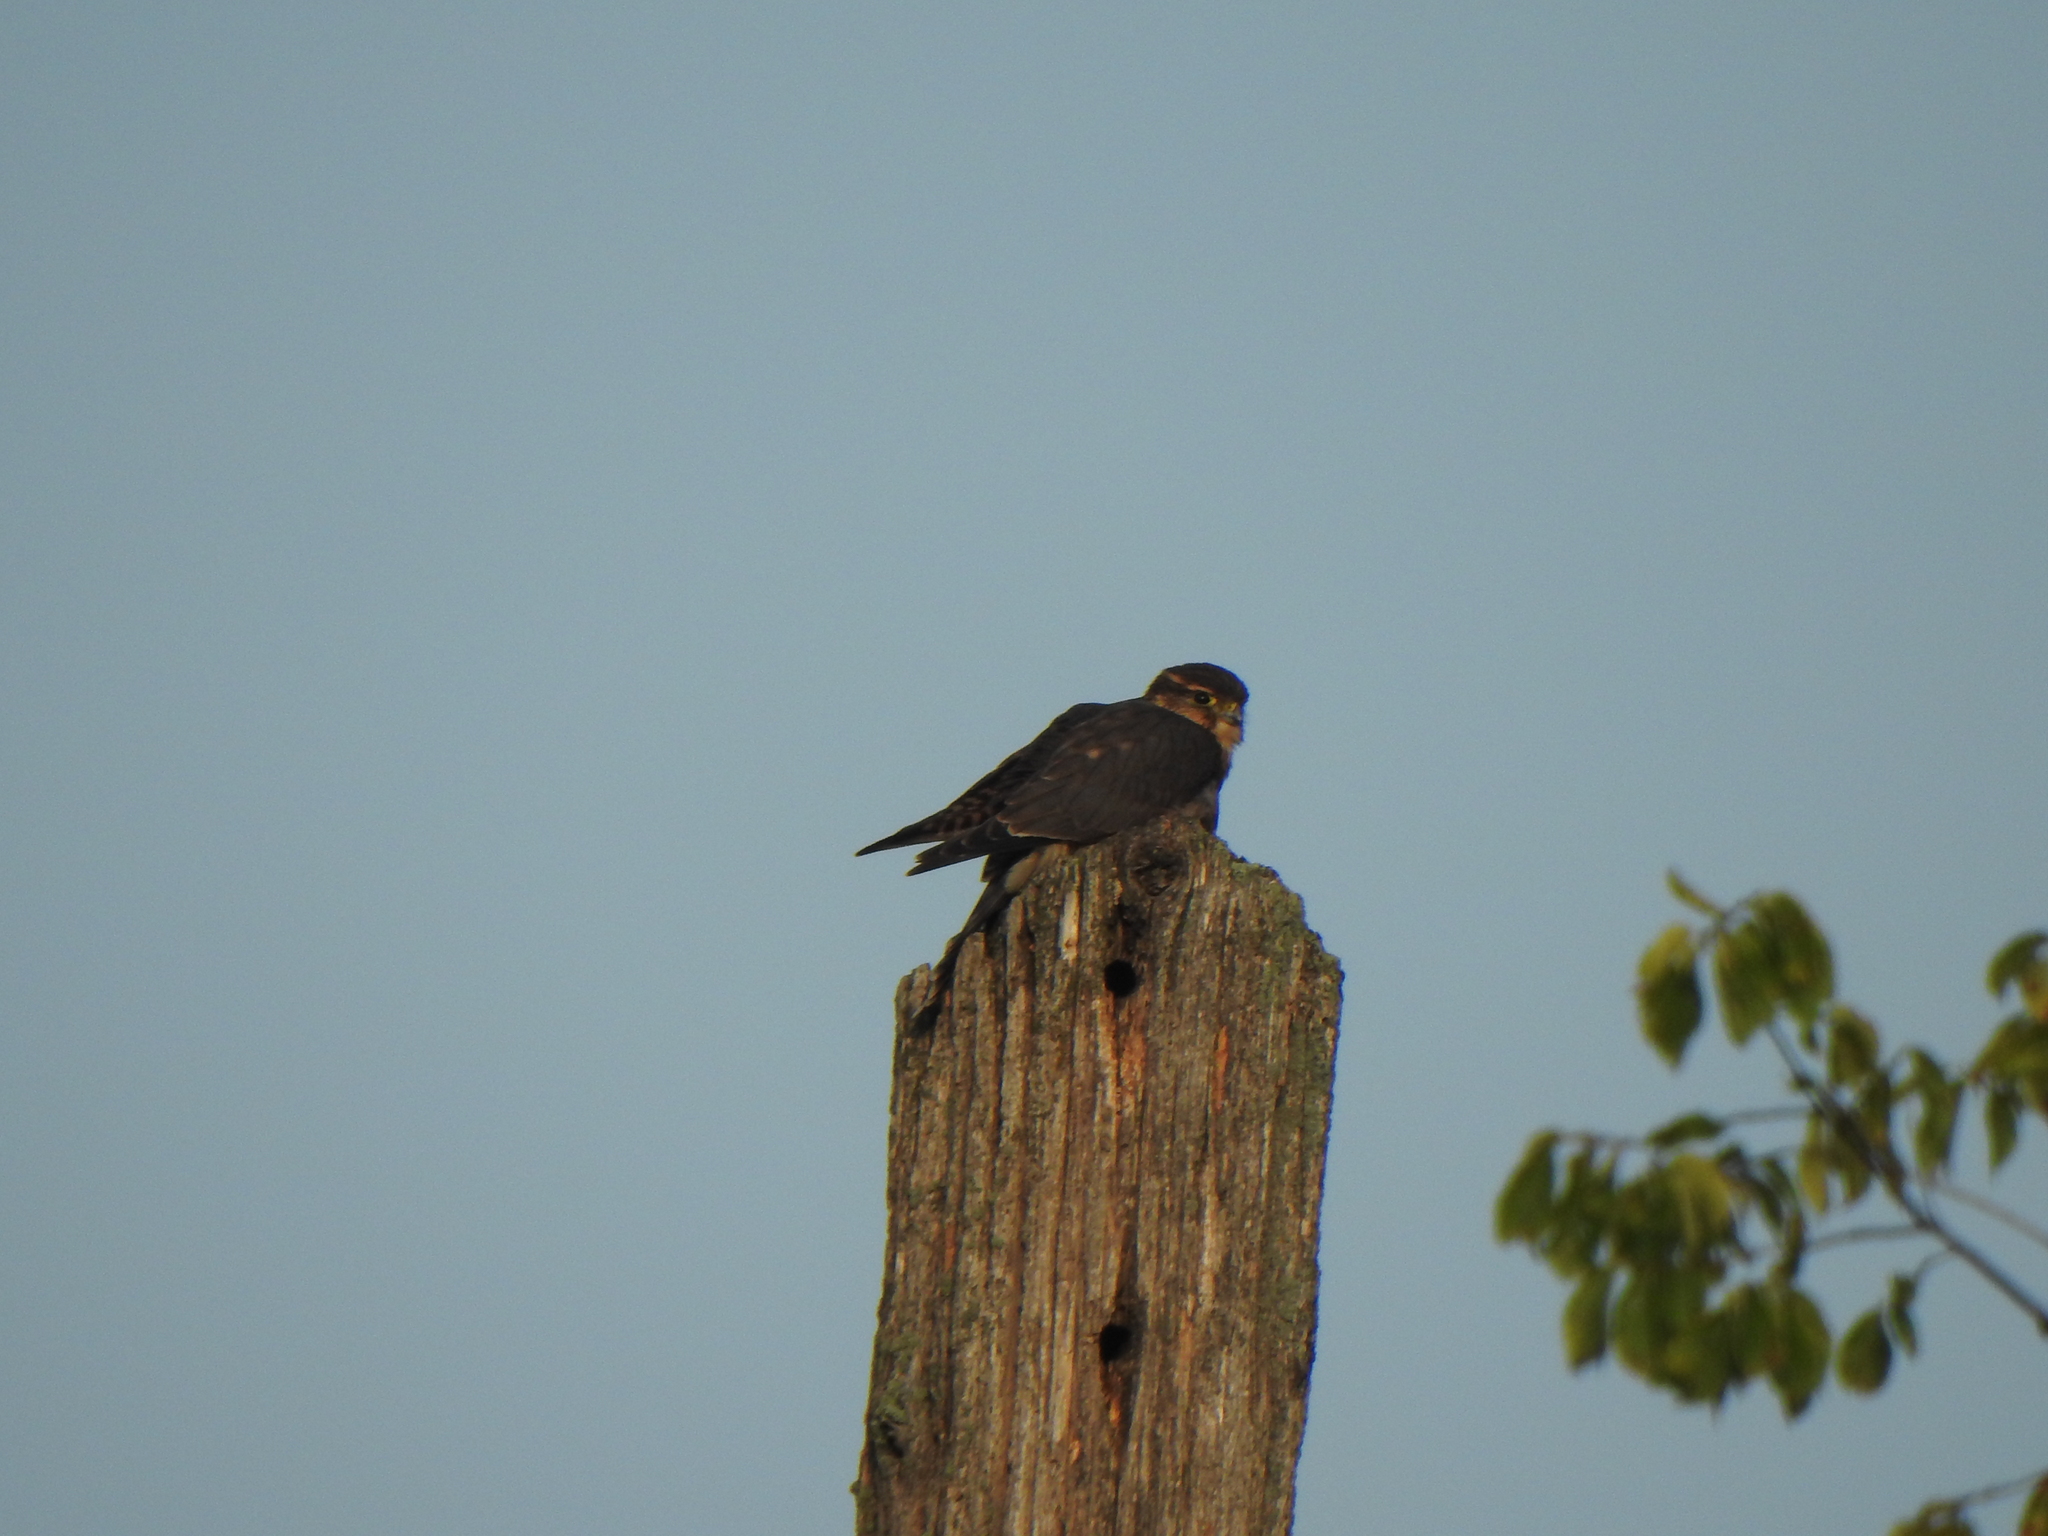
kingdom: Animalia
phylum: Chordata
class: Aves
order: Falconiformes
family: Falconidae
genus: Falco
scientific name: Falco columbarius
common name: Merlin
